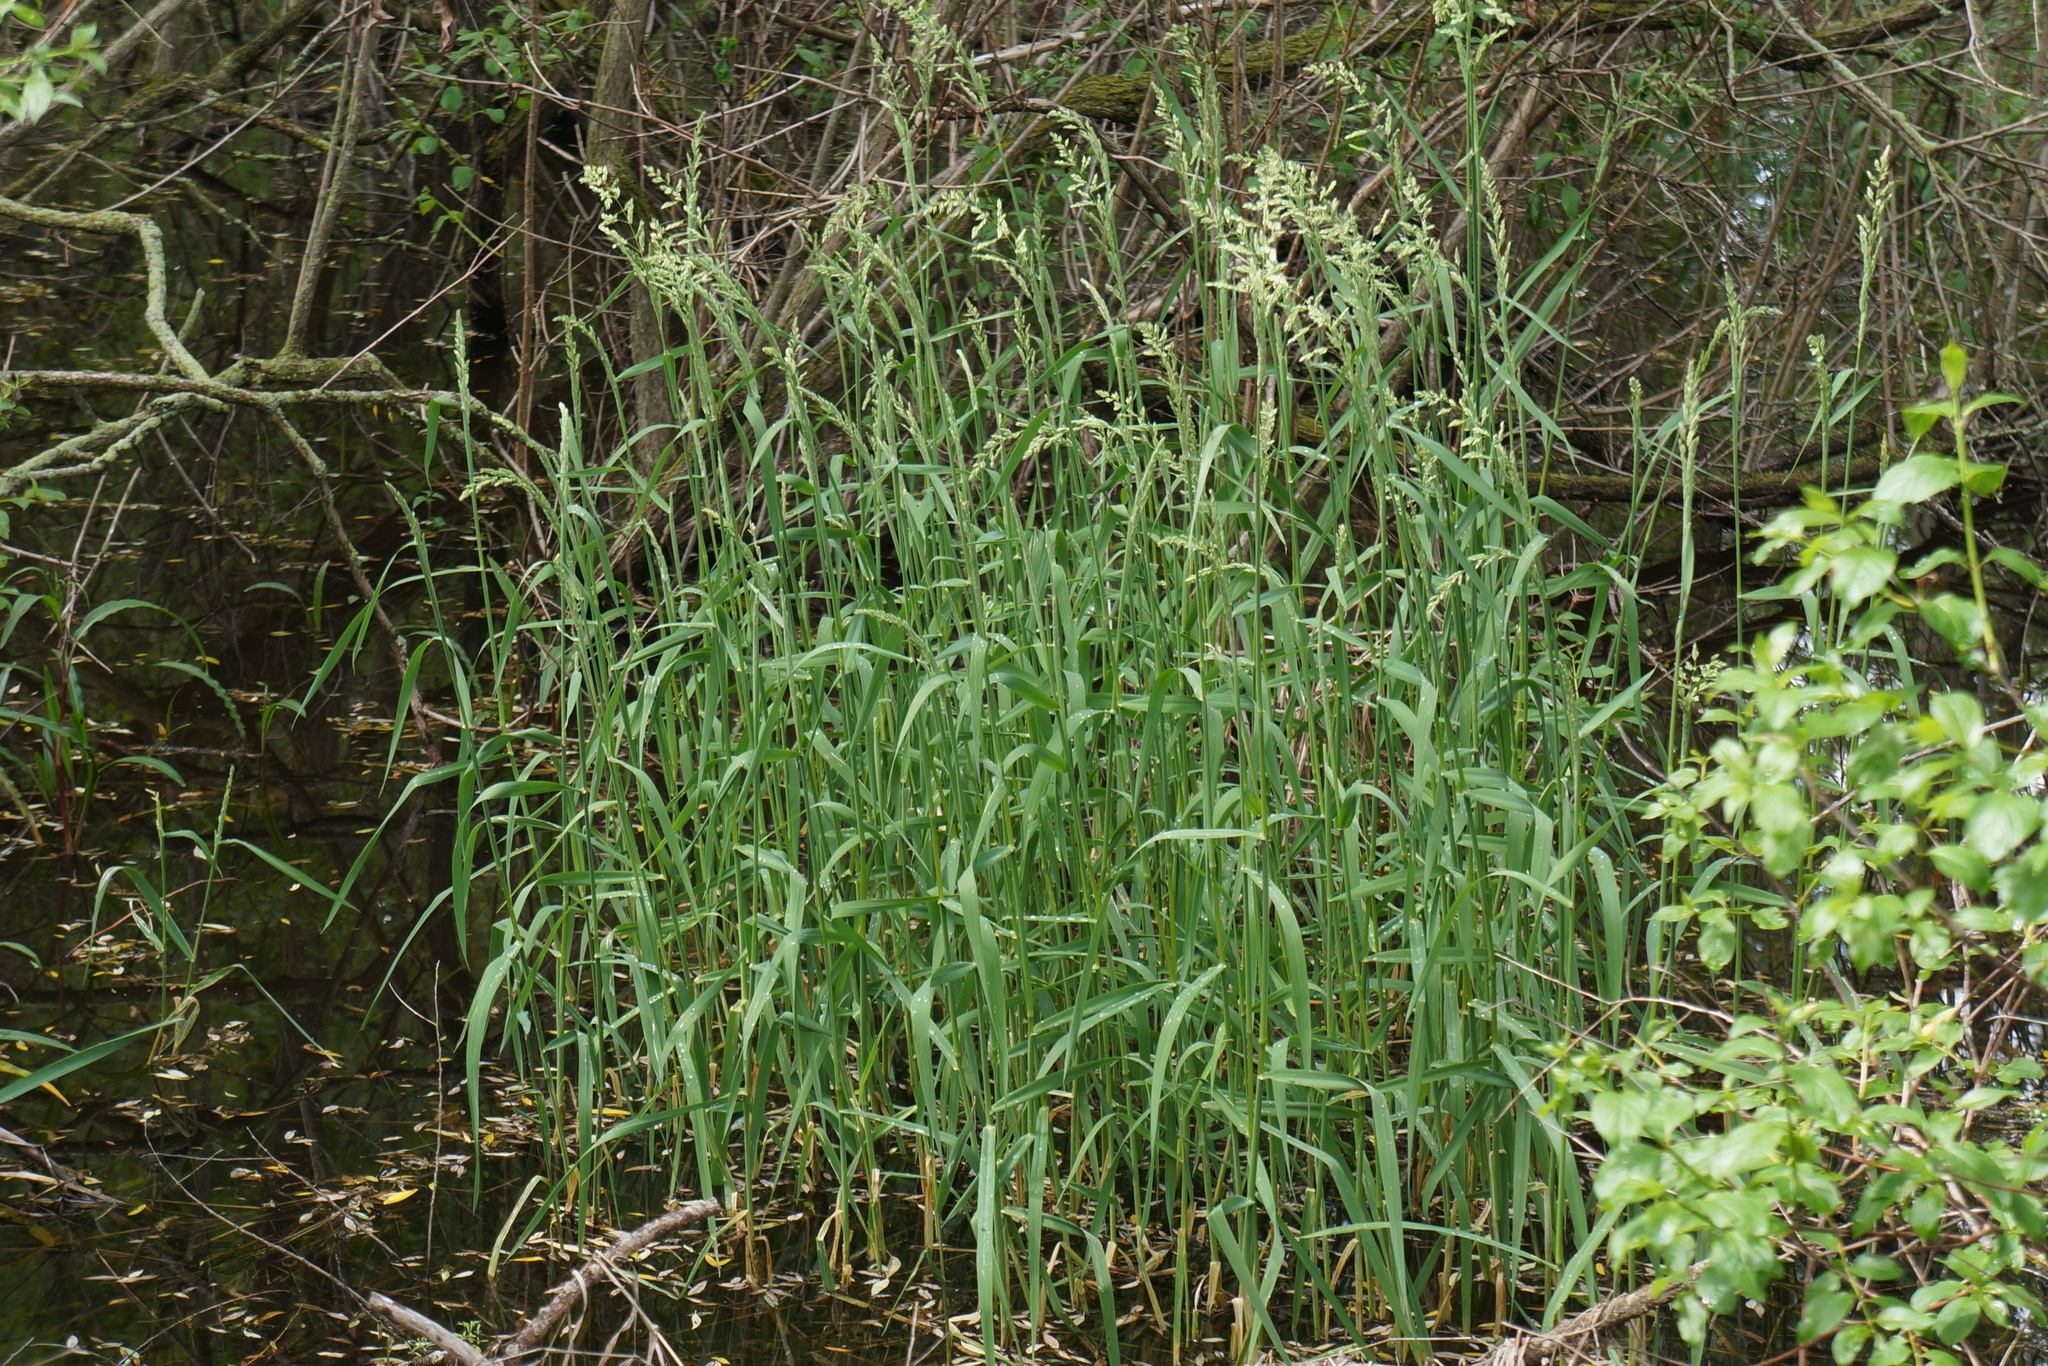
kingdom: Plantae
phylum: Tracheophyta
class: Liliopsida
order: Poales
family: Poaceae
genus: Phalaris
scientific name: Phalaris arundinacea
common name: Reed canary-grass
